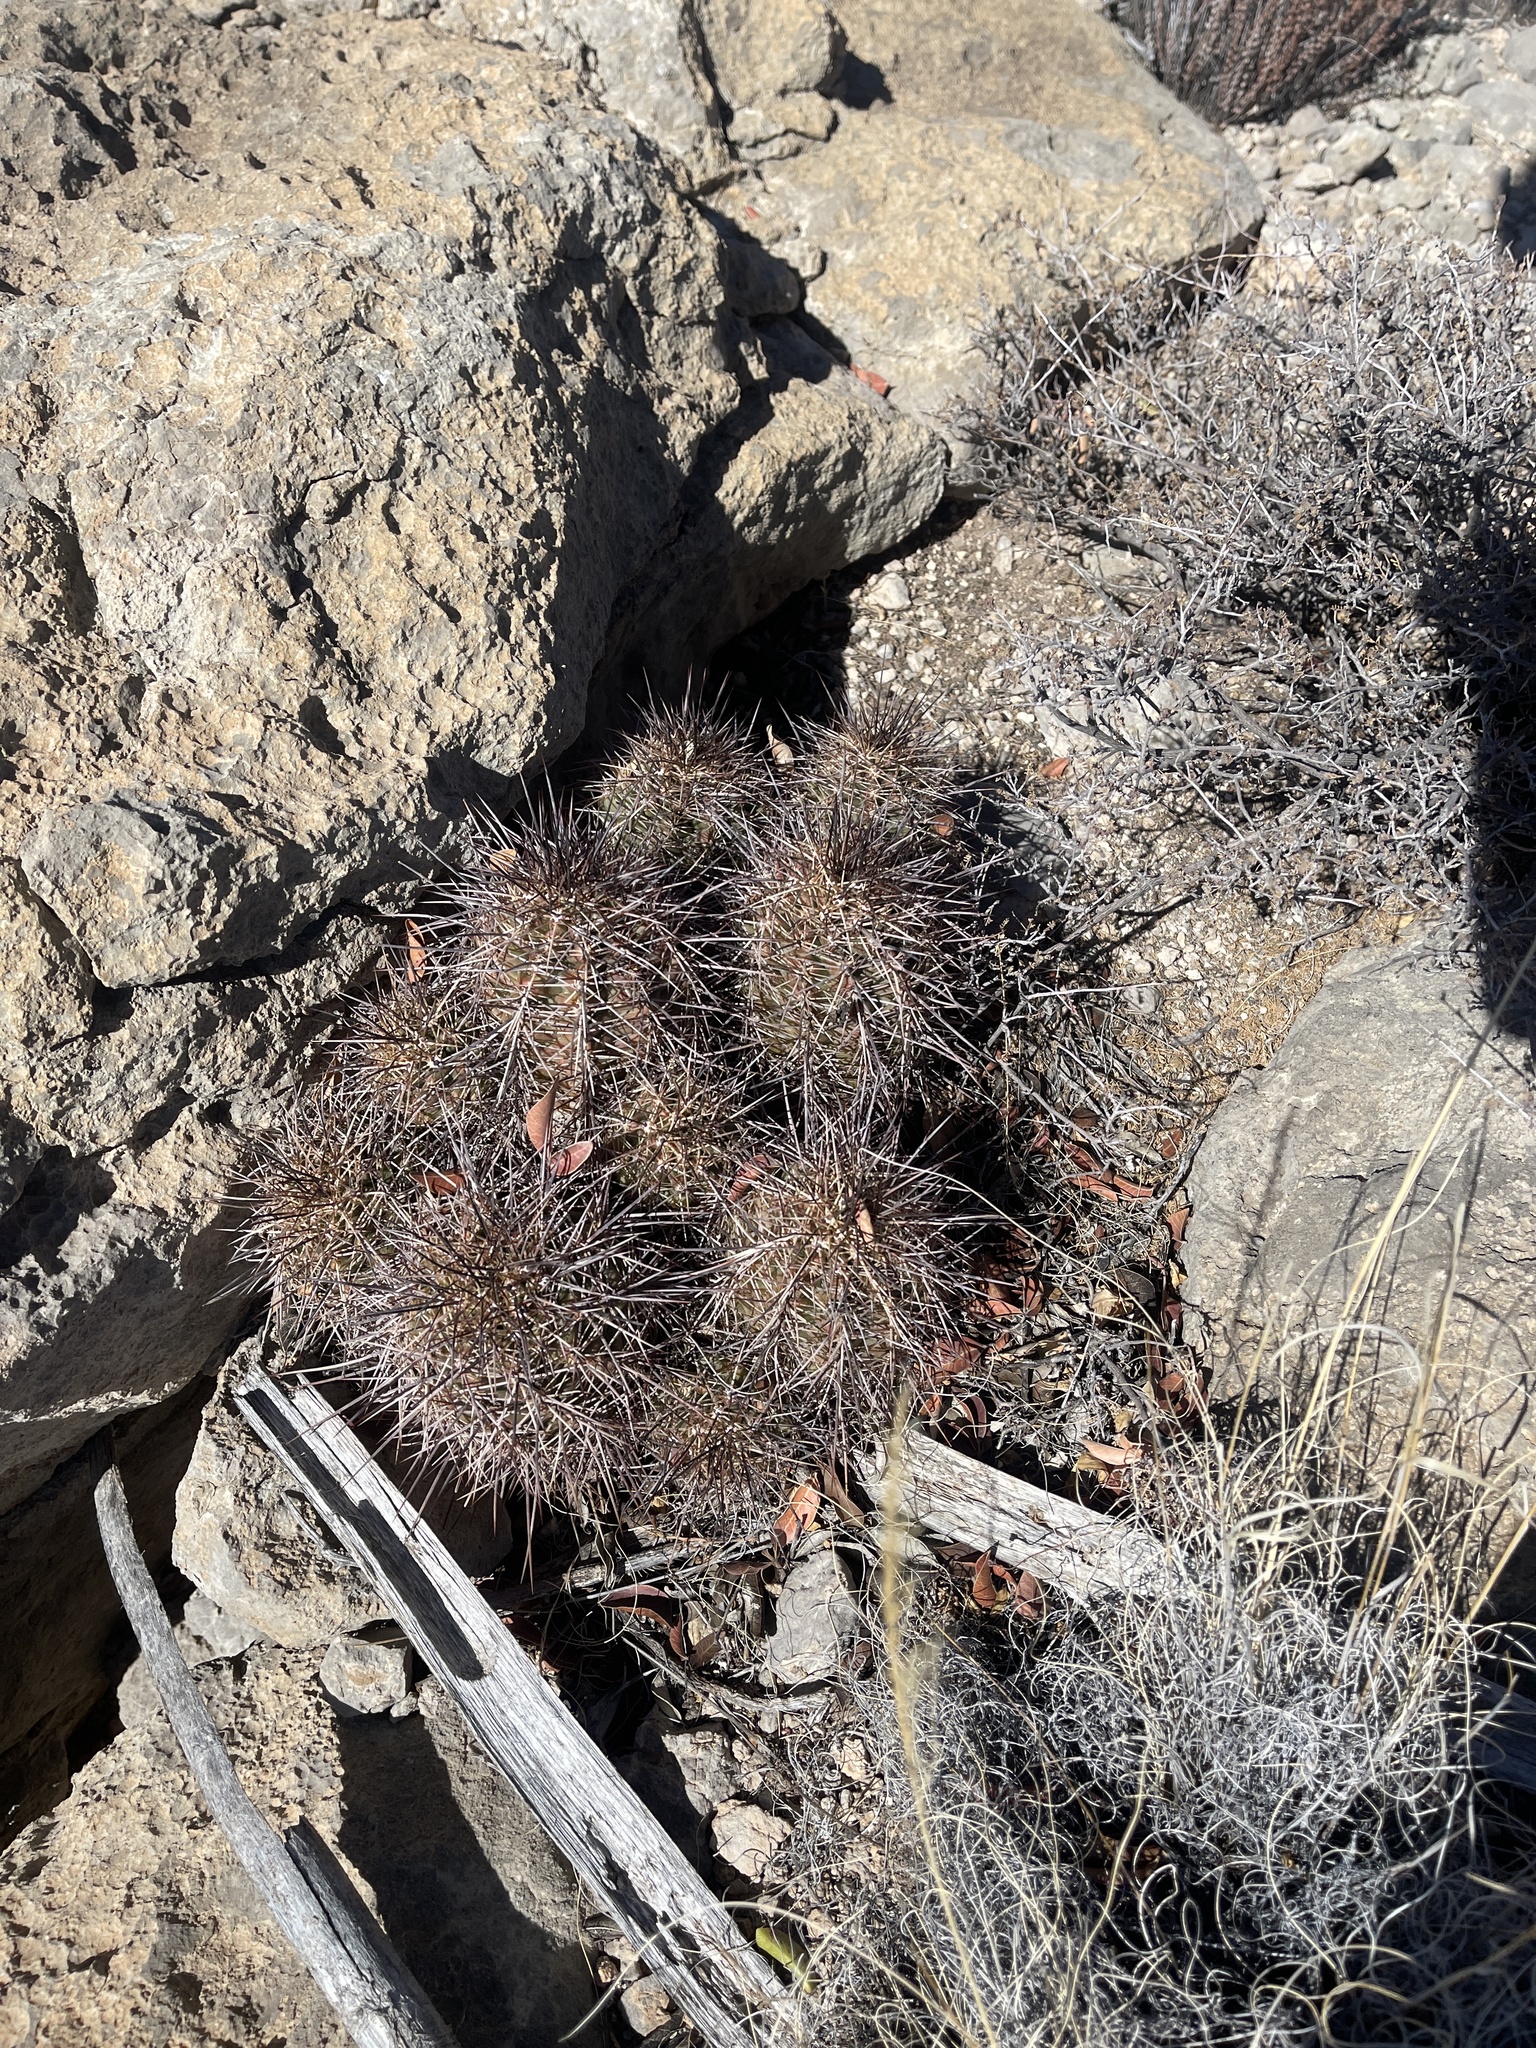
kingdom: Plantae
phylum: Tracheophyta
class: Magnoliopsida
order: Caryophyllales
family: Cactaceae
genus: Echinocereus
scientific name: Echinocereus coccineus
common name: Scarlet hedgehog cactus
